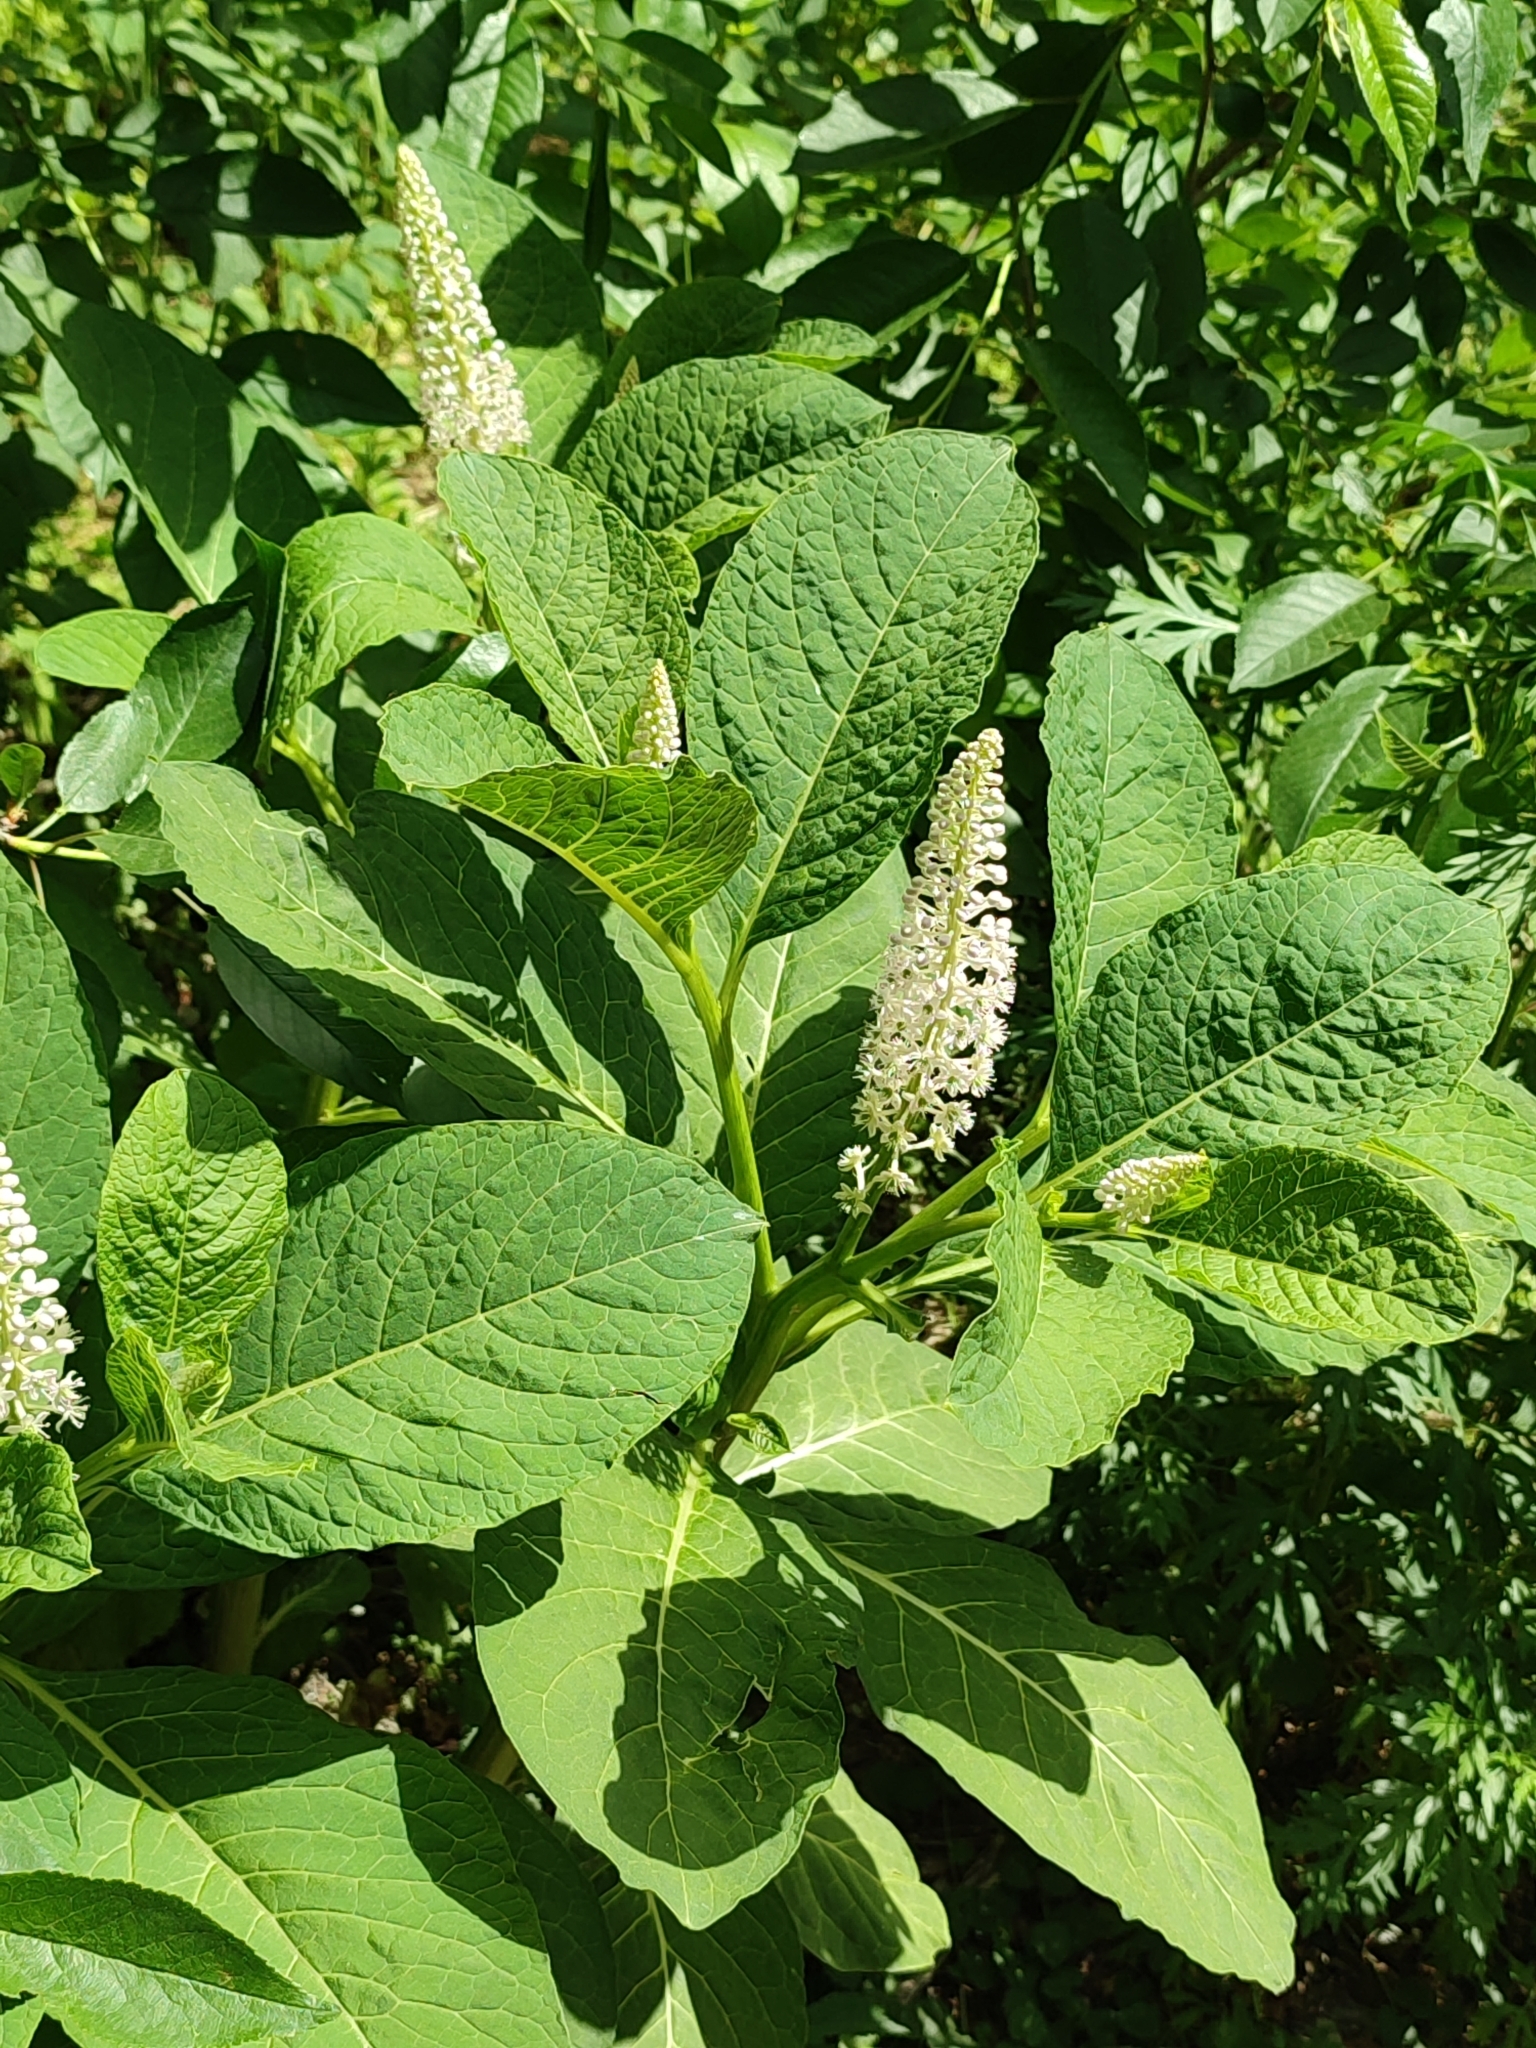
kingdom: Plantae
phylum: Tracheophyta
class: Magnoliopsida
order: Caryophyllales
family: Phytolaccaceae
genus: Phytolacca
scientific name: Phytolacca acinosa
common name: Indian pokeweed
